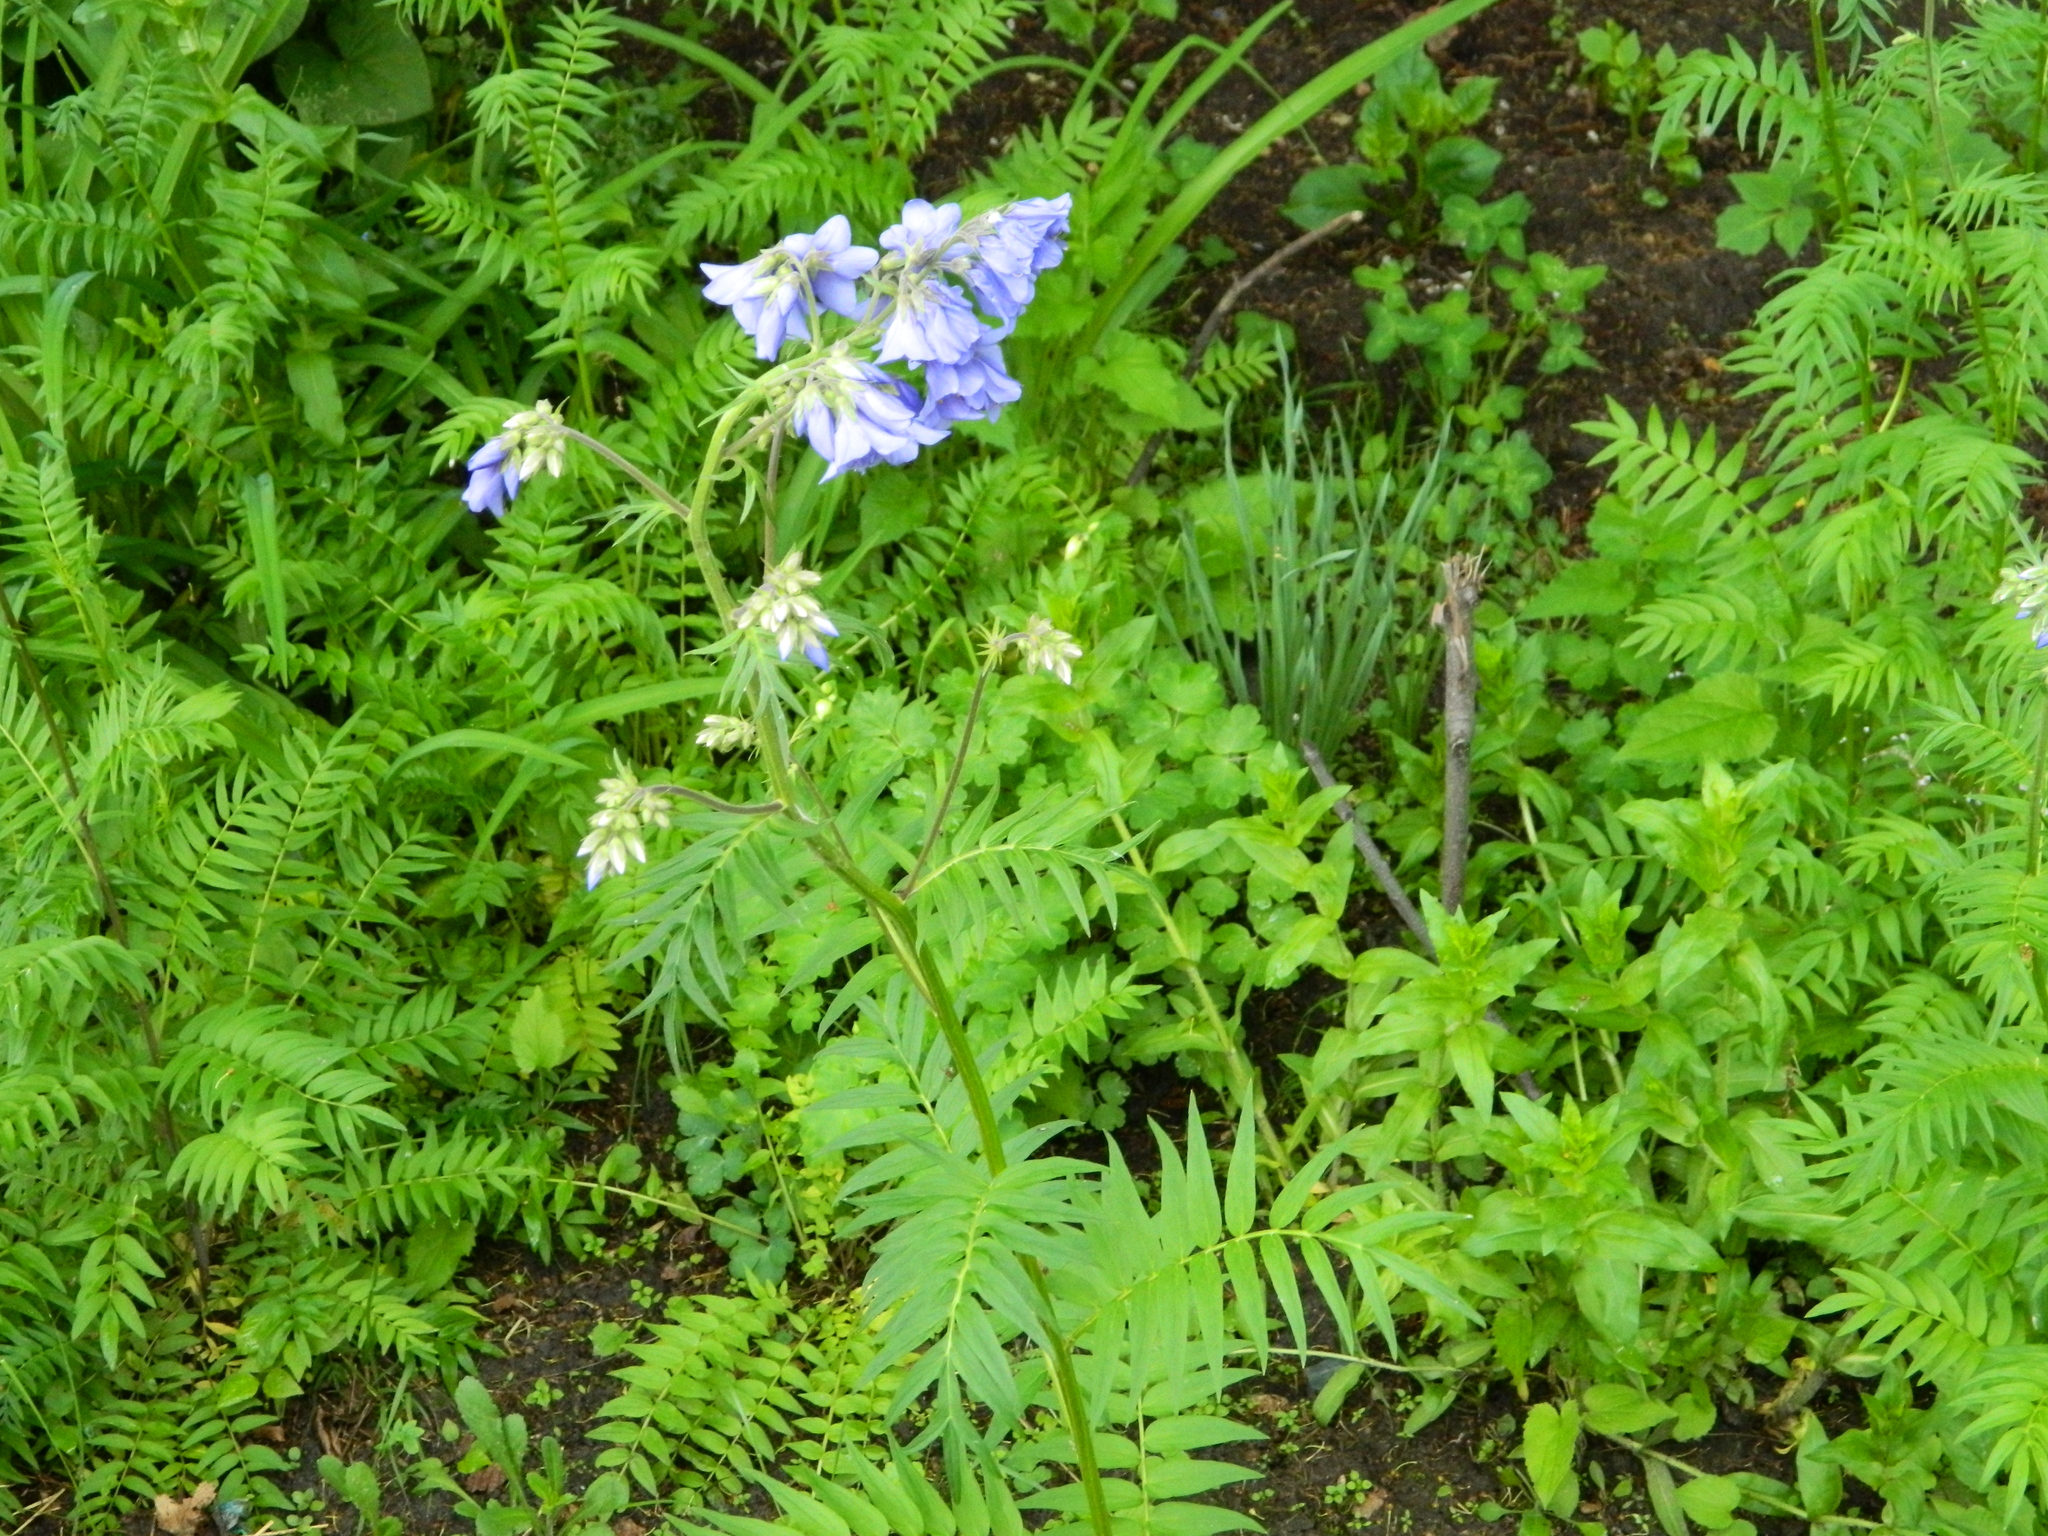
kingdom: Plantae
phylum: Tracheophyta
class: Magnoliopsida
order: Ericales
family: Polemoniaceae
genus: Polemonium
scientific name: Polemonium caeruleum
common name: Jacob's-ladder
